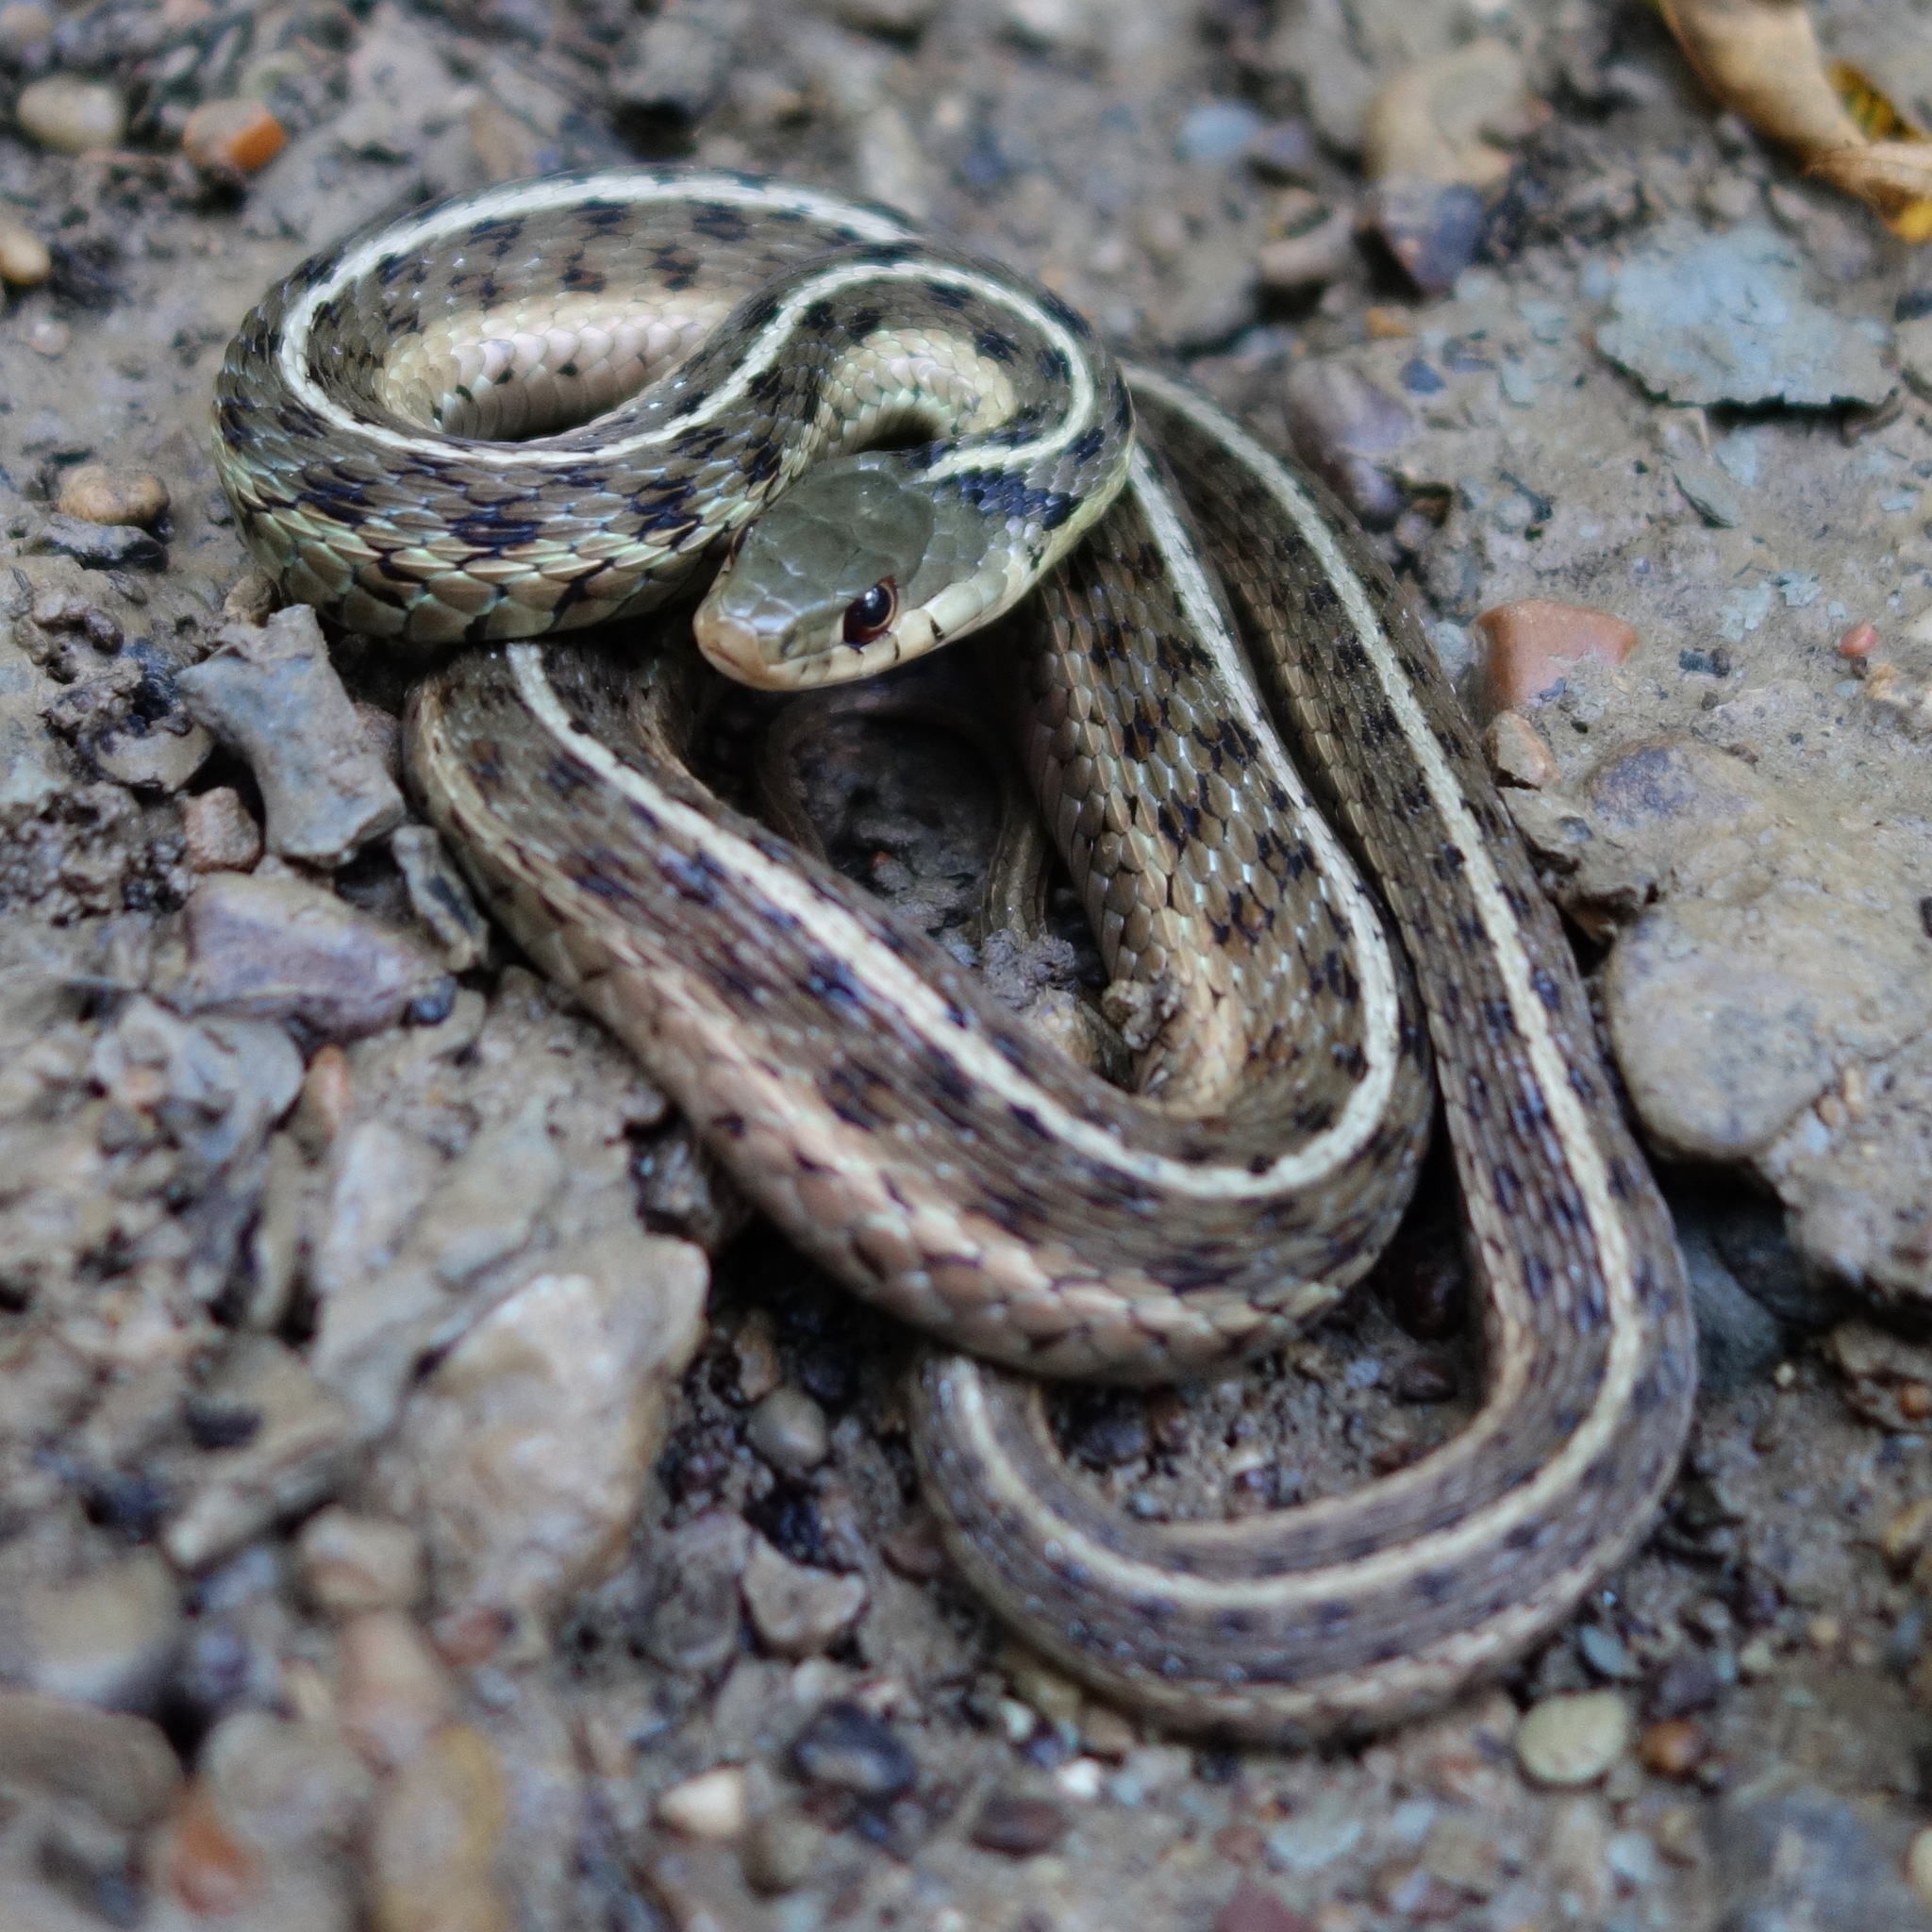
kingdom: Animalia
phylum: Chordata
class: Squamata
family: Colubridae
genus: Thamnophis
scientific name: Thamnophis sirtalis
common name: Common garter snake
